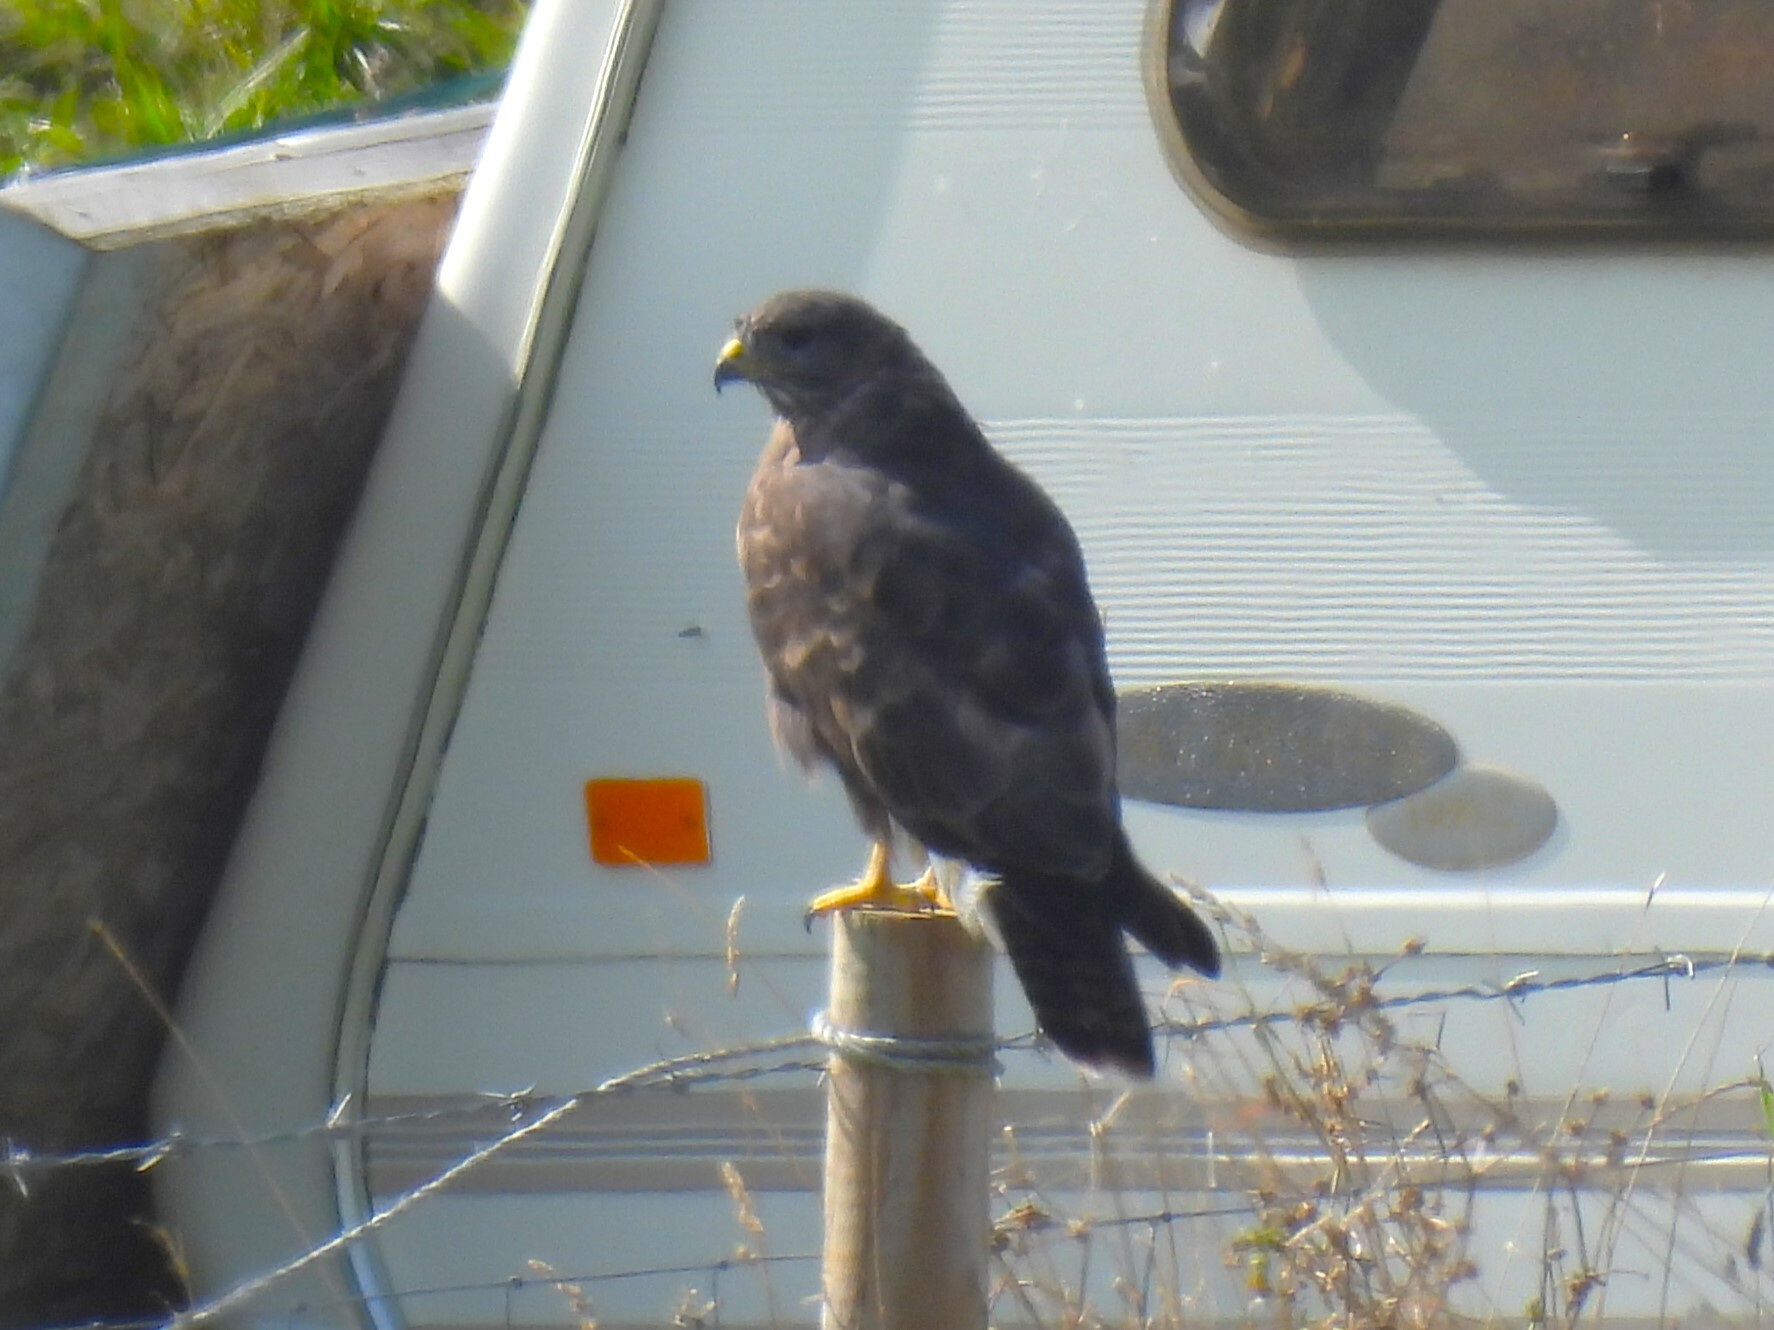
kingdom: Animalia
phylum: Chordata
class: Aves
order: Accipitriformes
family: Accipitridae
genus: Buteo
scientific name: Buteo buteo
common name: Common buzzard
